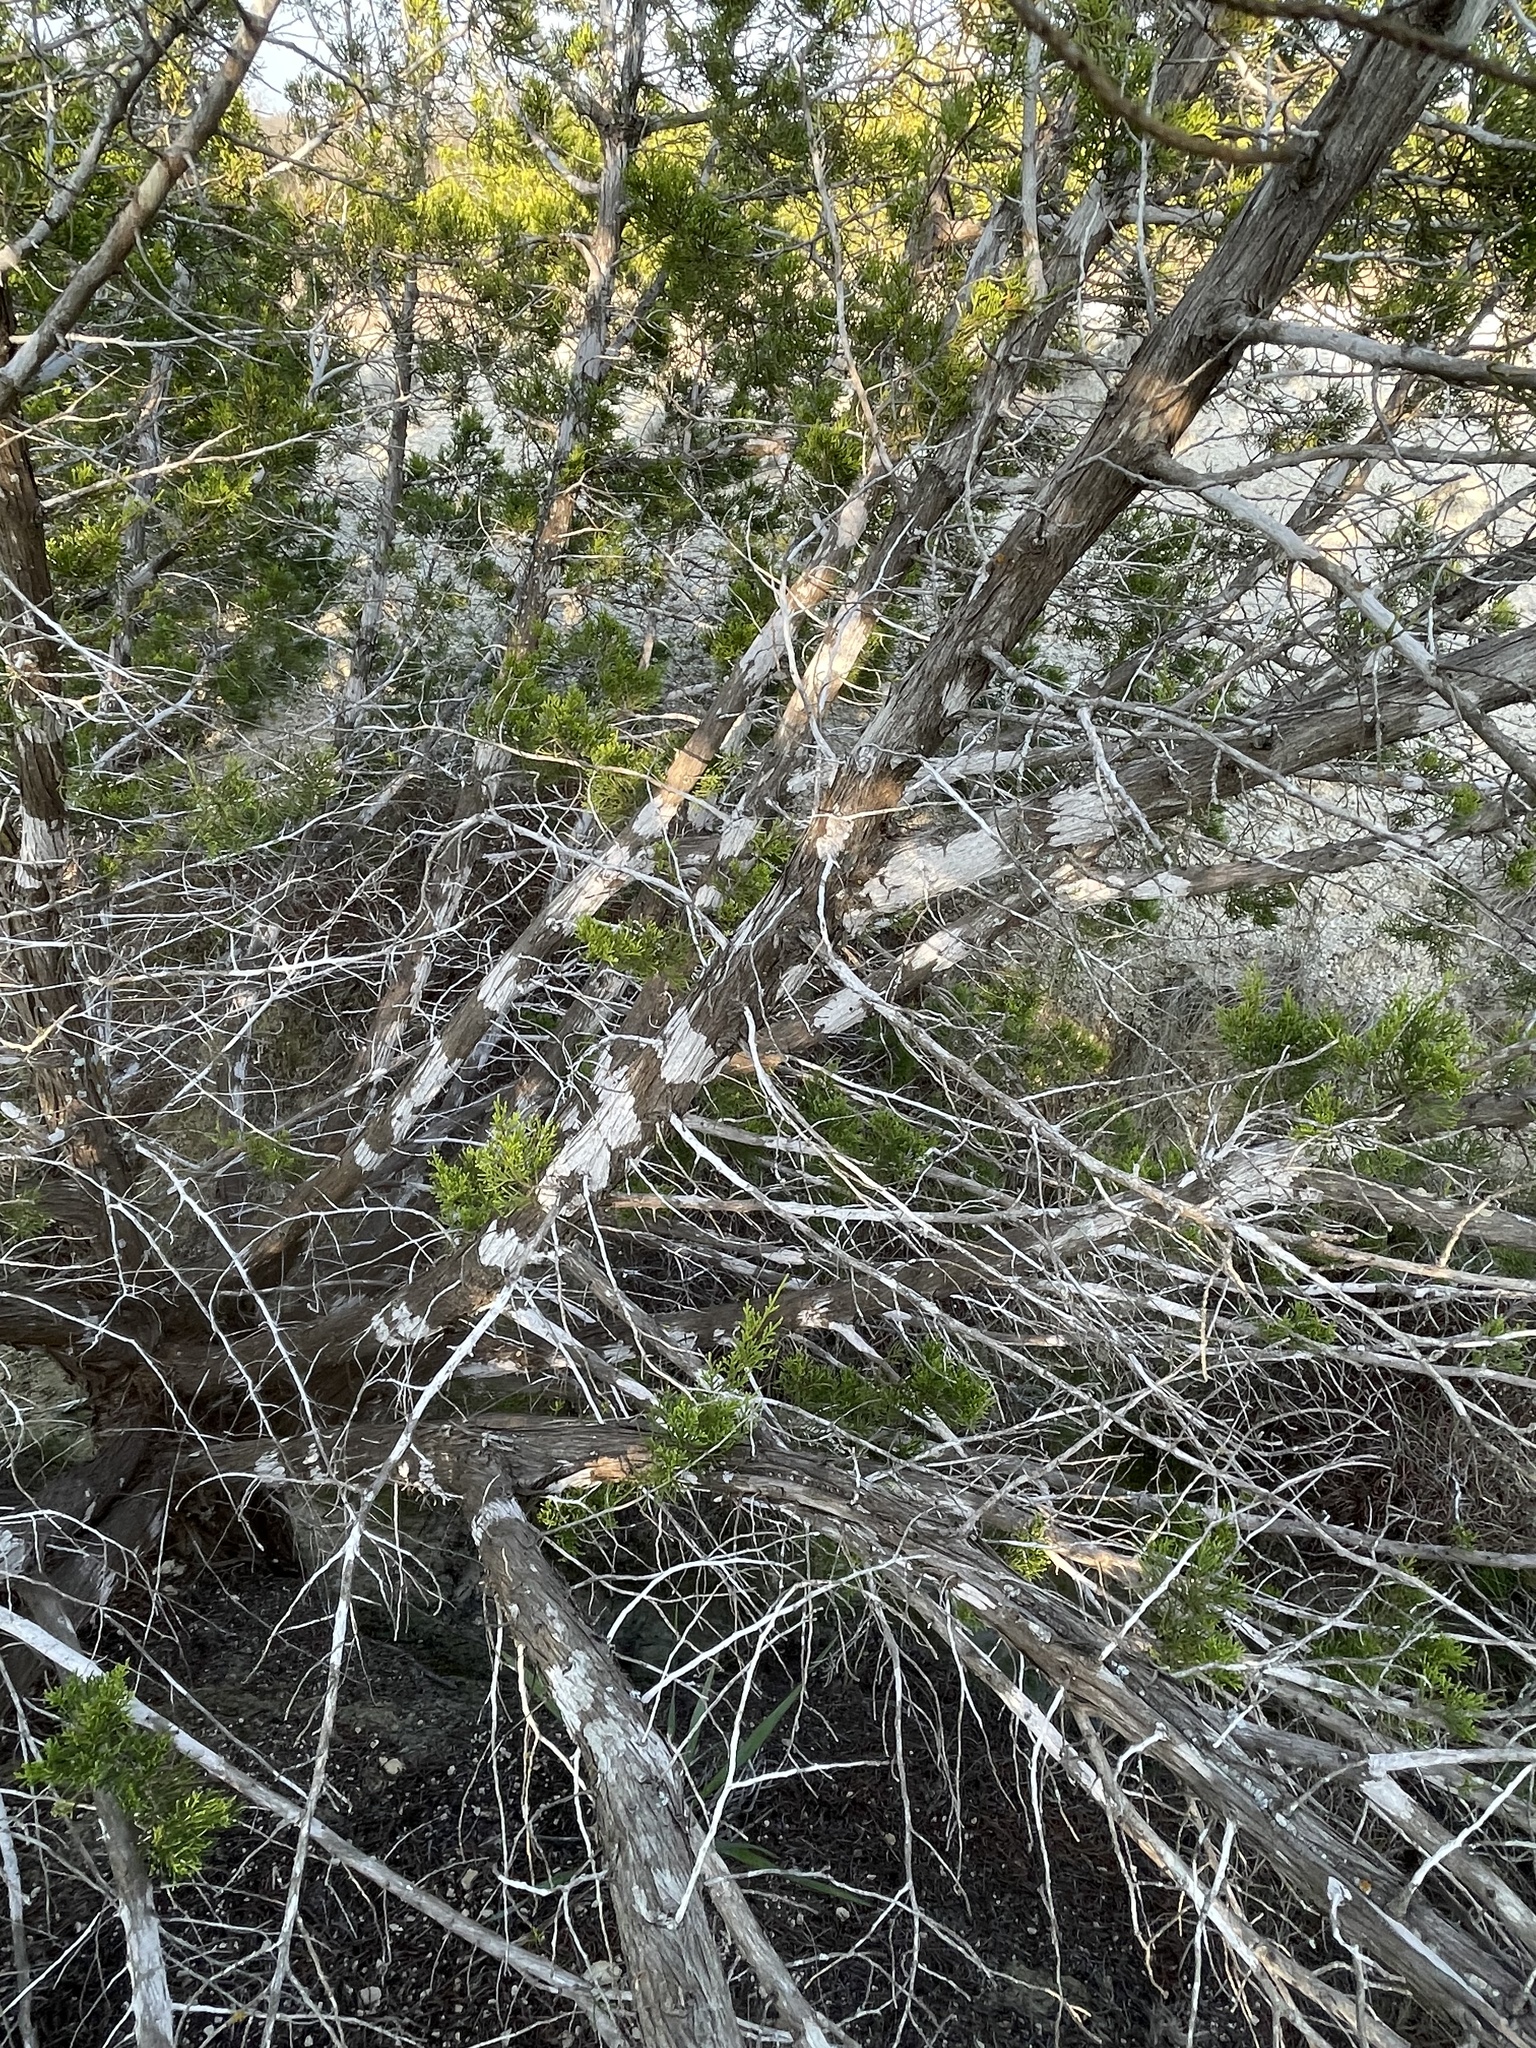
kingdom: Fungi
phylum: Ascomycota
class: Lecanoromycetes
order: Ostropales
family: Stictidaceae
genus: Robergea
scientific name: Robergea
